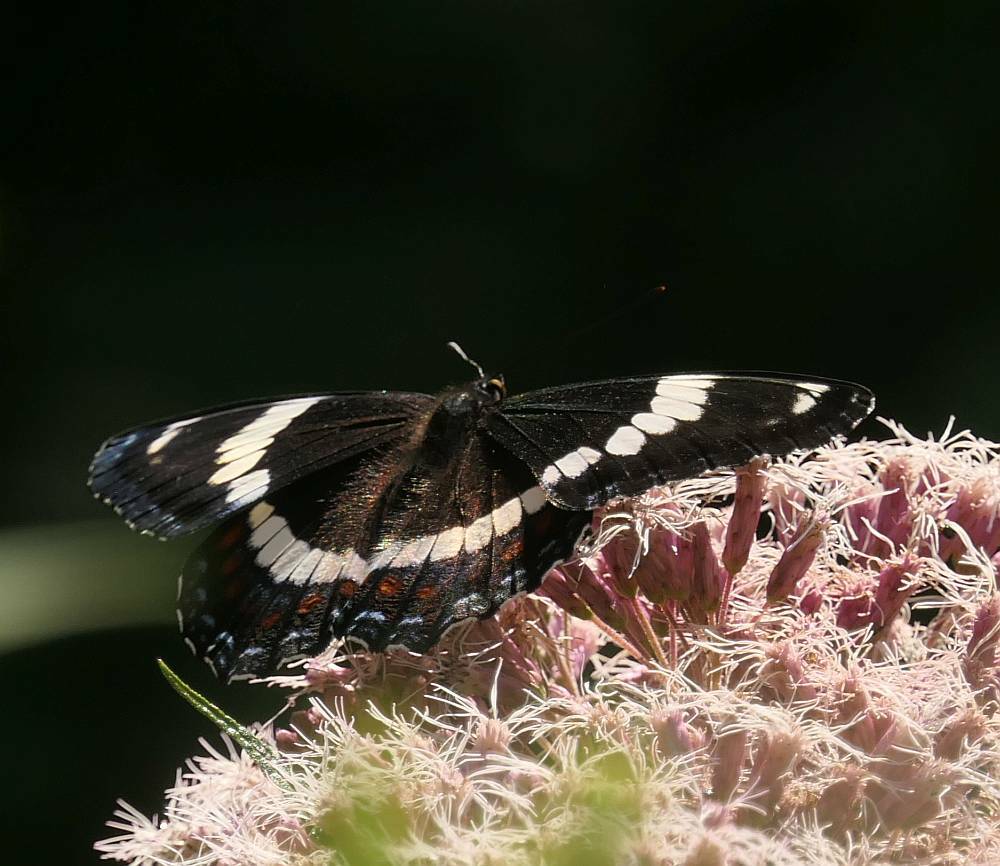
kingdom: Animalia
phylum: Arthropoda
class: Insecta
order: Lepidoptera
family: Nymphalidae
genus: Limenitis
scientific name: Limenitis arthemis
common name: Red-spotted admiral
